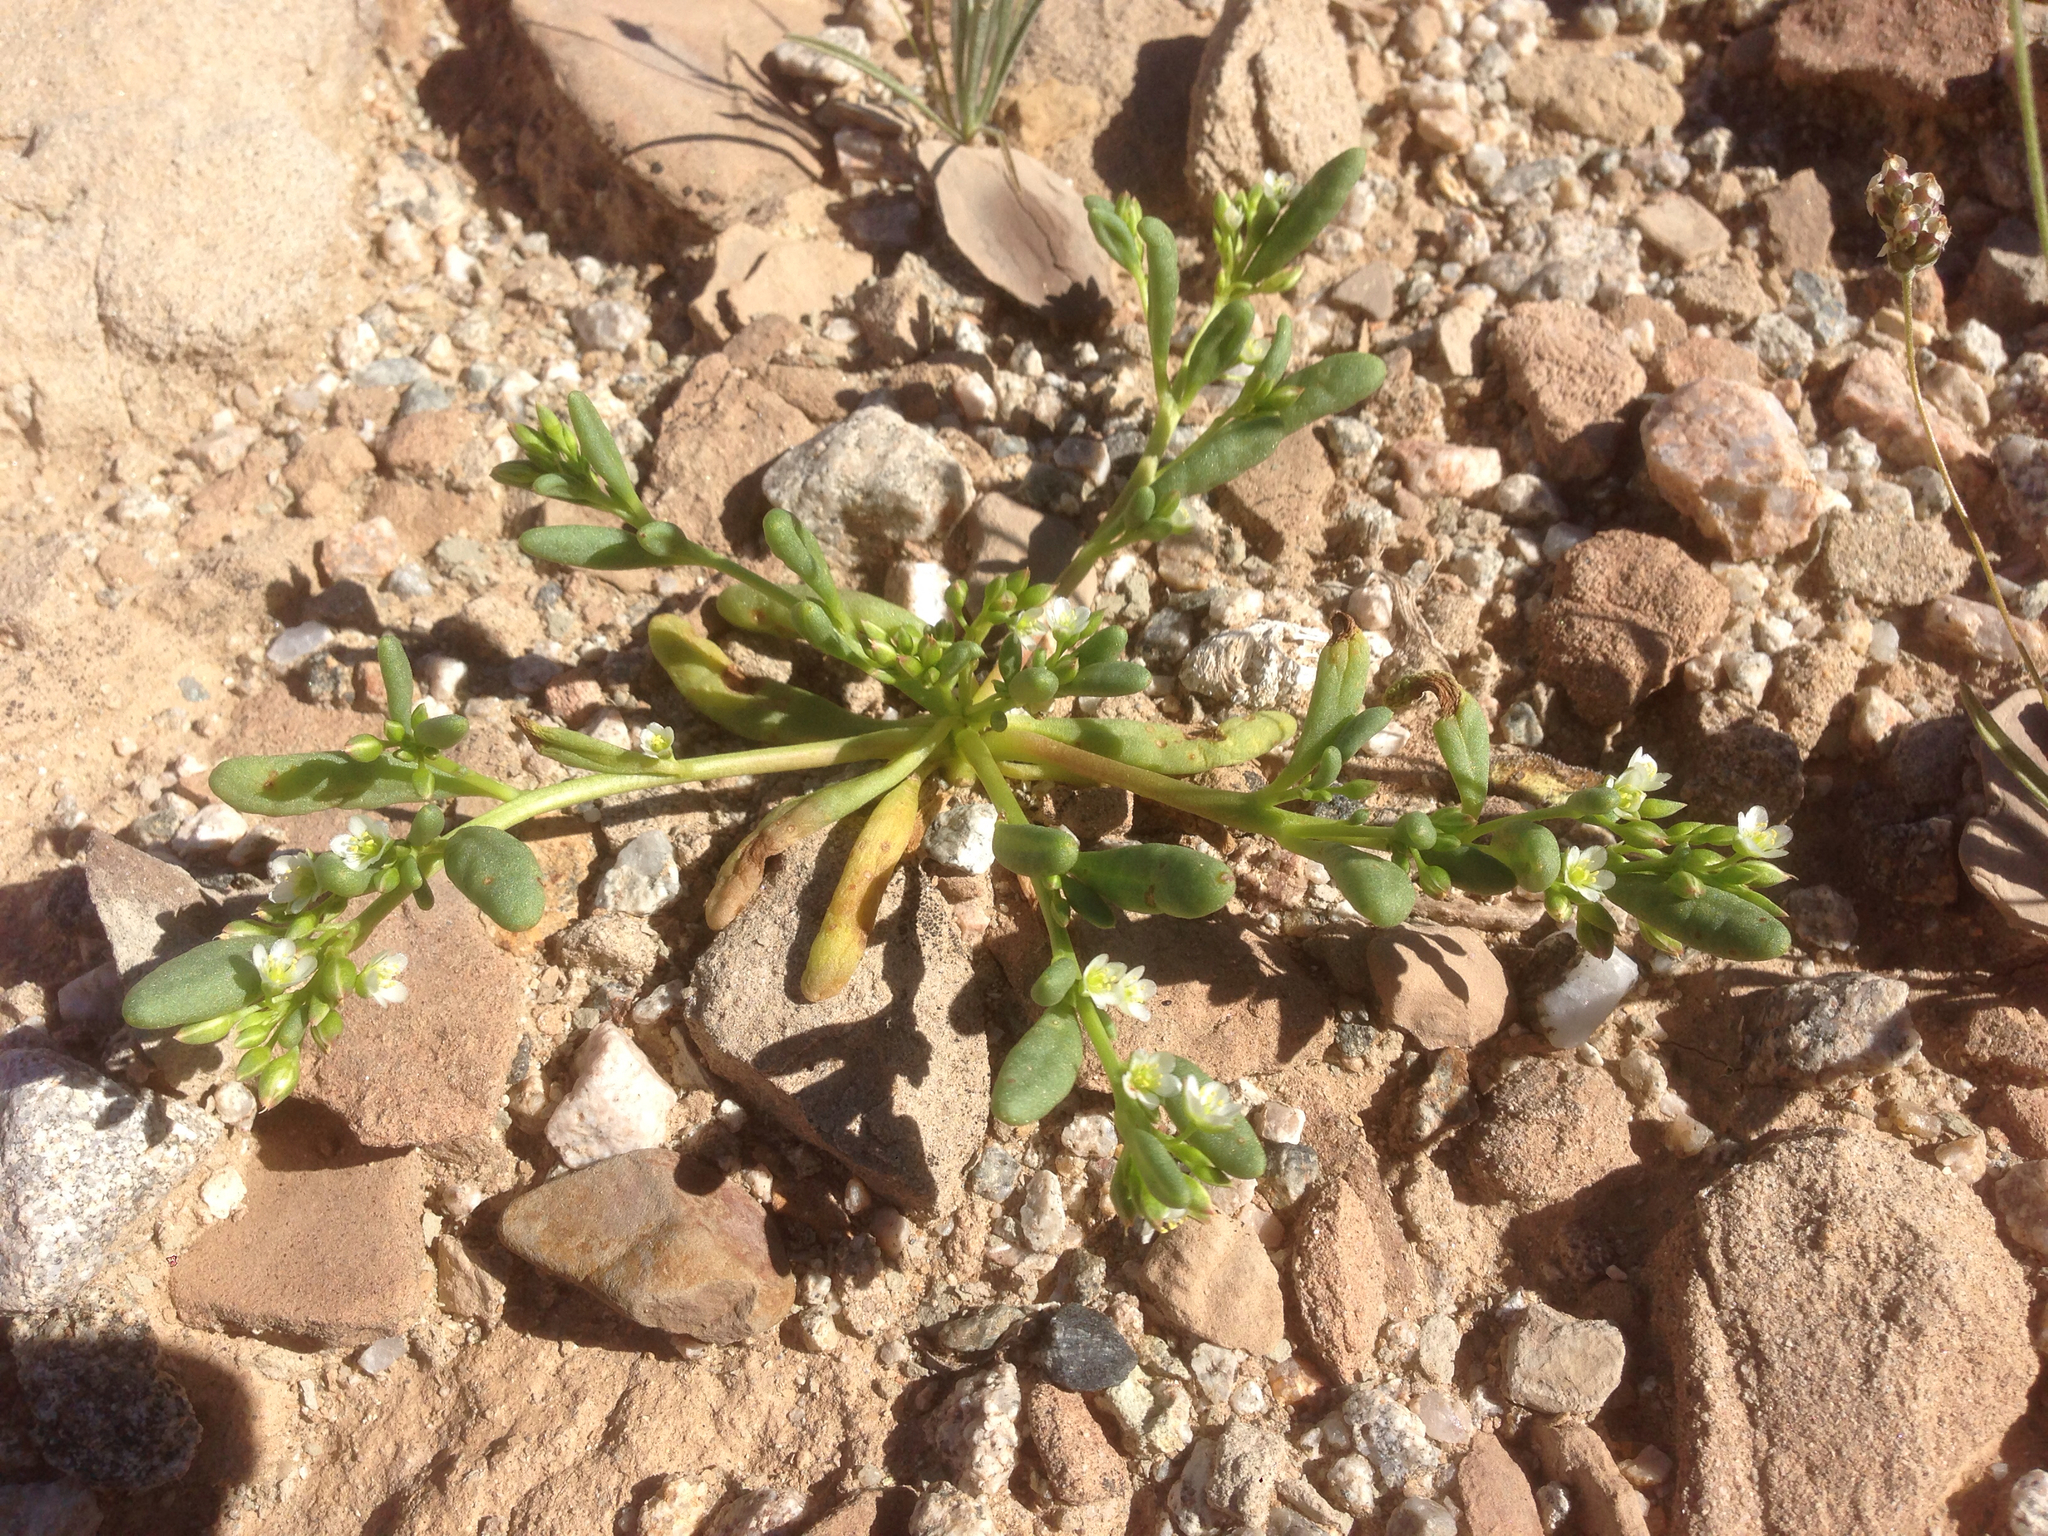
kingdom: Plantae
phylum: Tracheophyta
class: Magnoliopsida
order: Caryophyllales
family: Montiaceae
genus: Thingia
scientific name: Thingia ambigua
